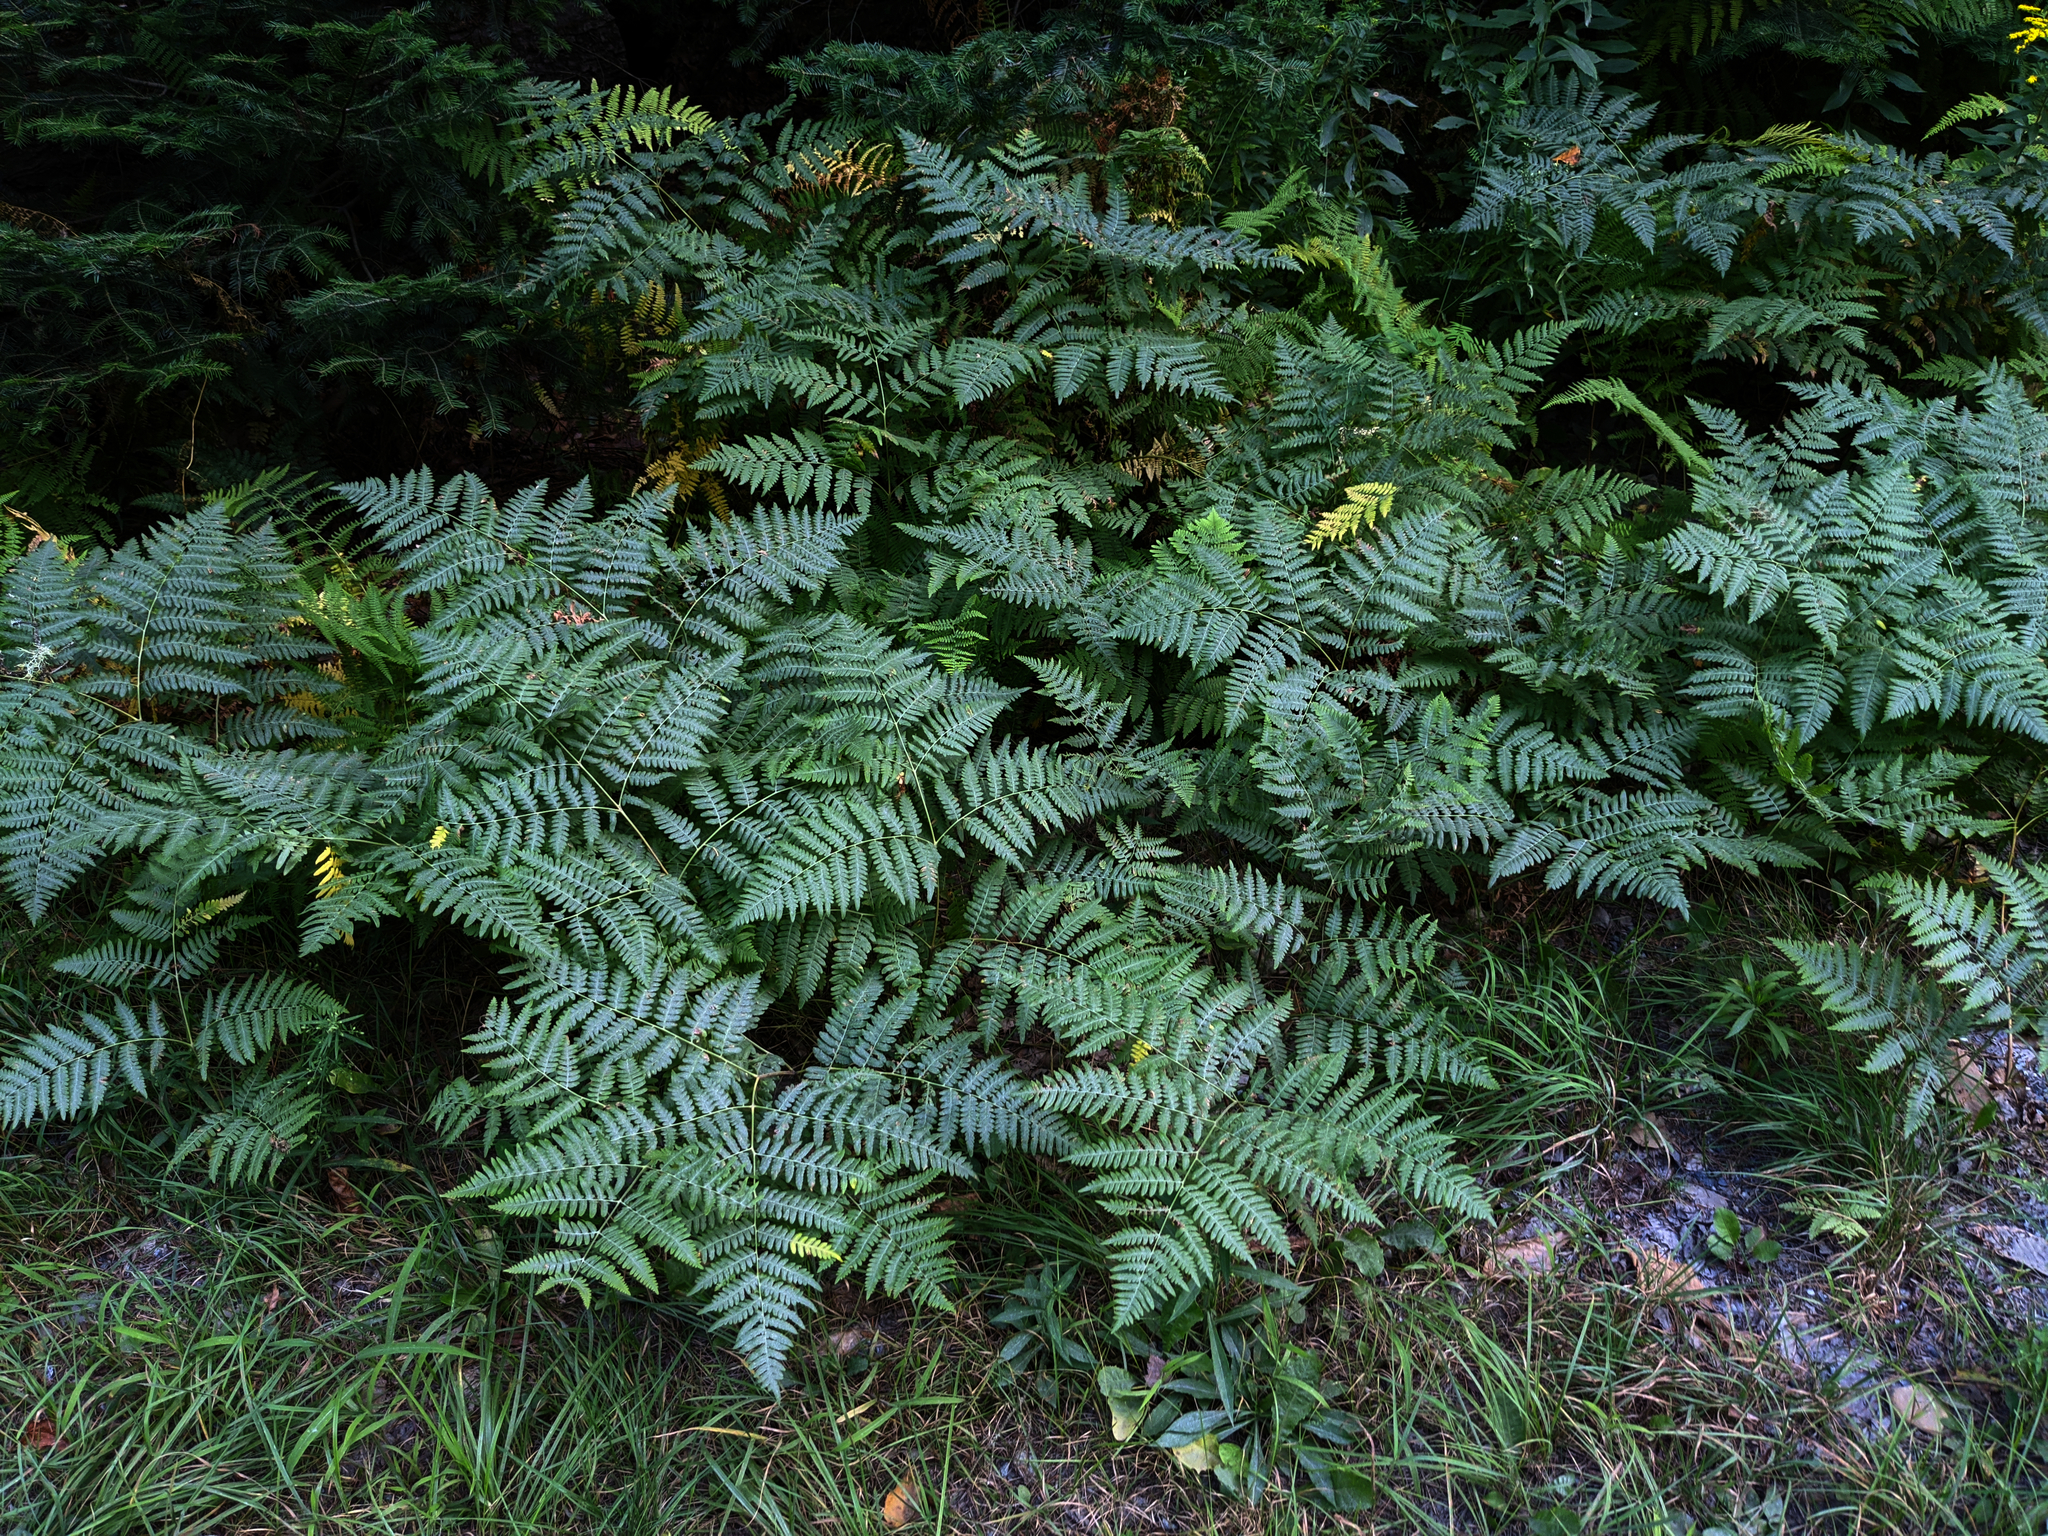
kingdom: Plantae
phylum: Tracheophyta
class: Polypodiopsida
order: Polypodiales
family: Dennstaedtiaceae
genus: Pteridium
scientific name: Pteridium aquilinum
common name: Bracken
